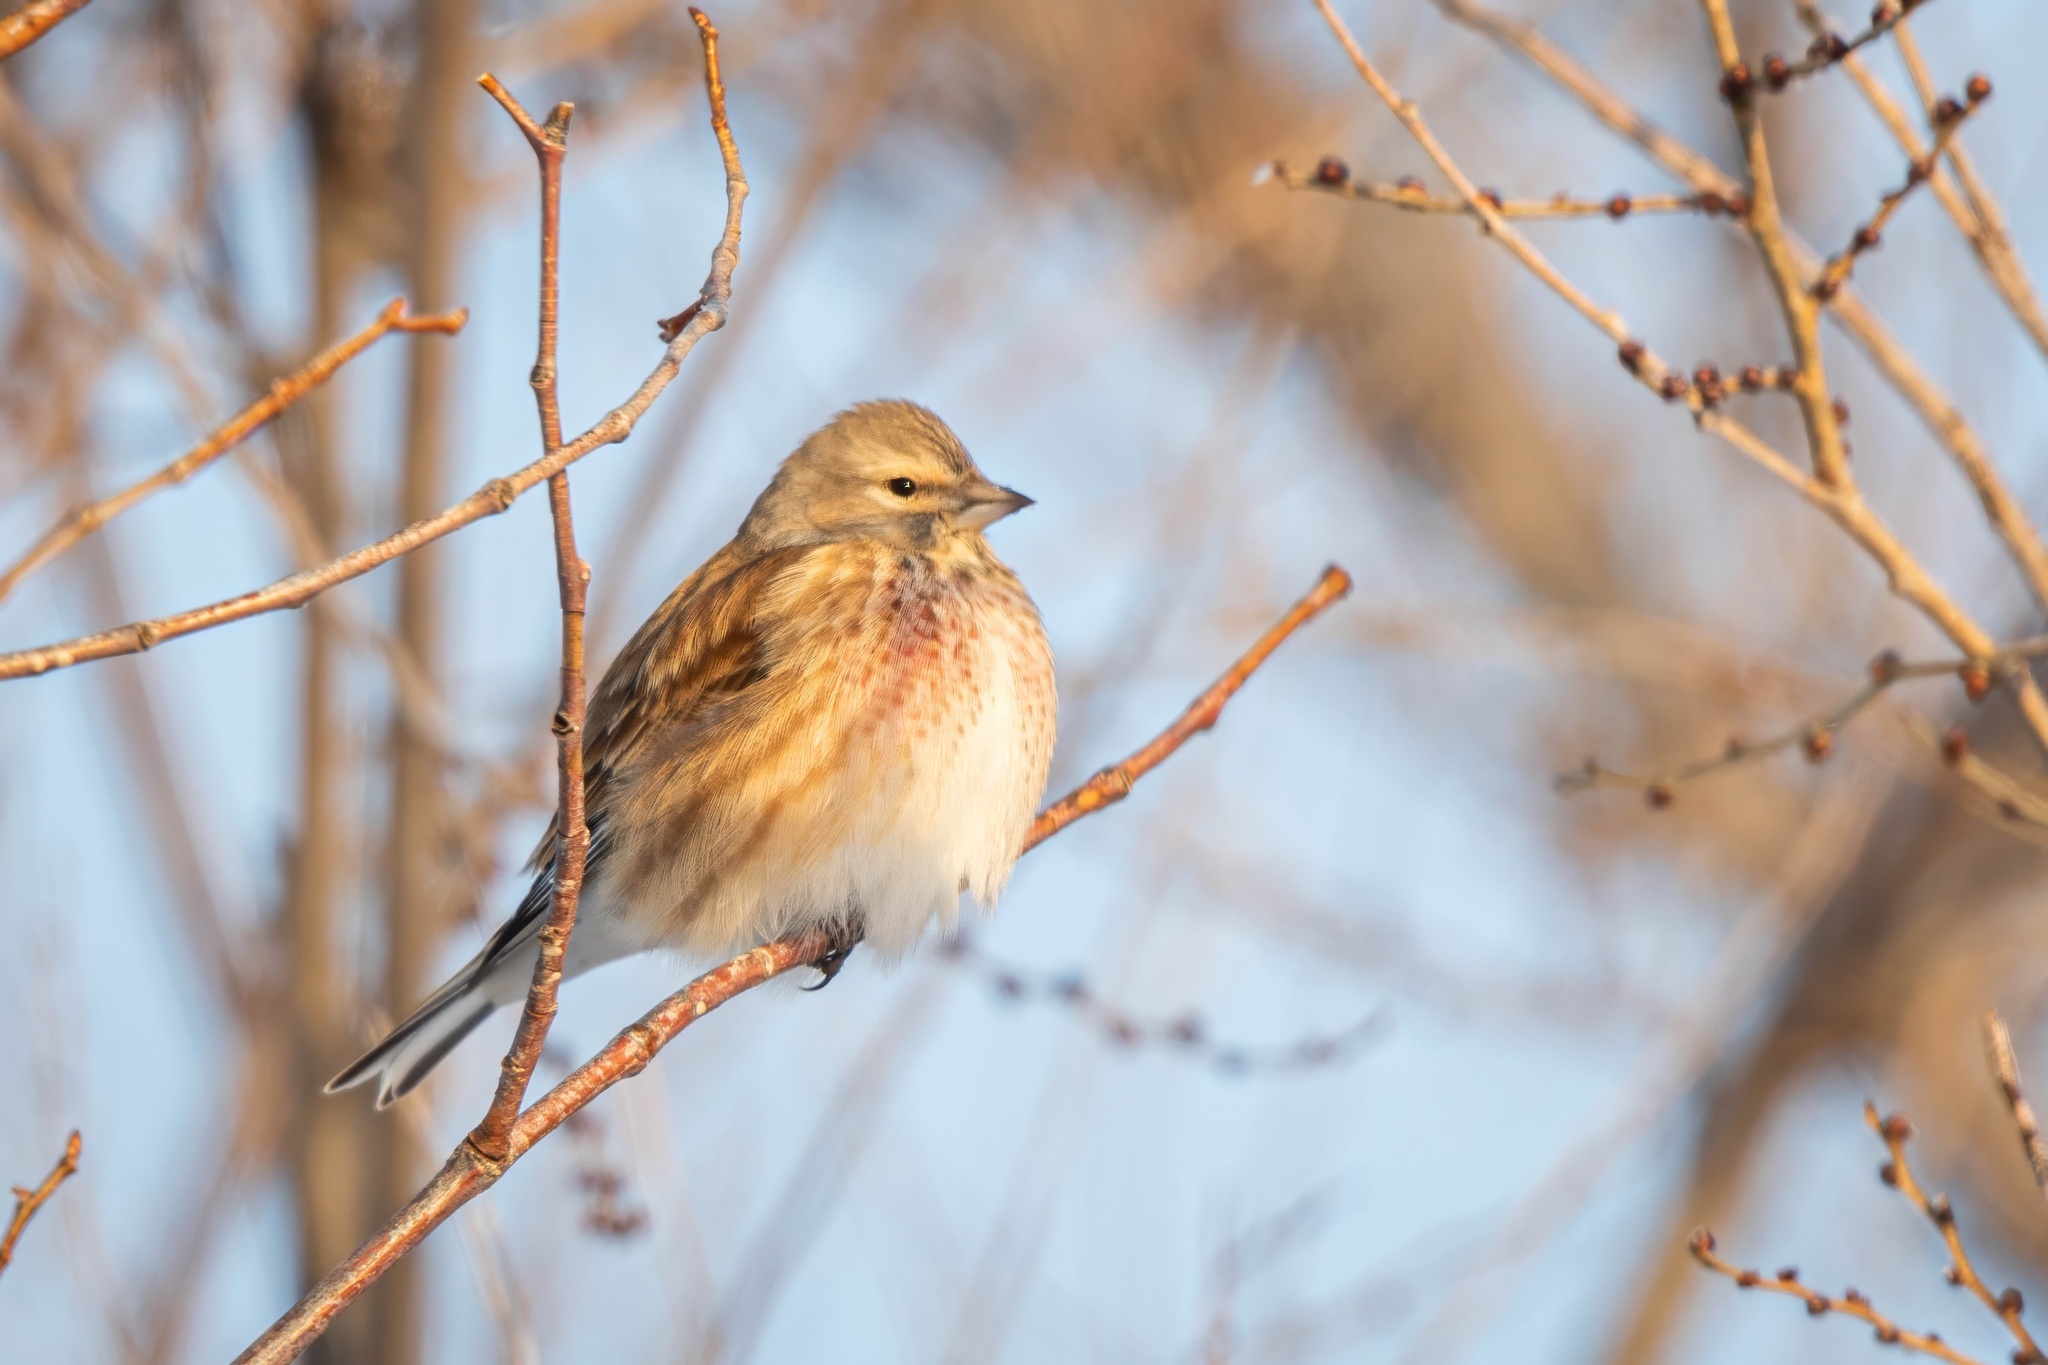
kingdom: Animalia
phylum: Chordata
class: Aves
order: Passeriformes
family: Fringillidae
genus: Linaria
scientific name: Linaria cannabina
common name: Common linnet
